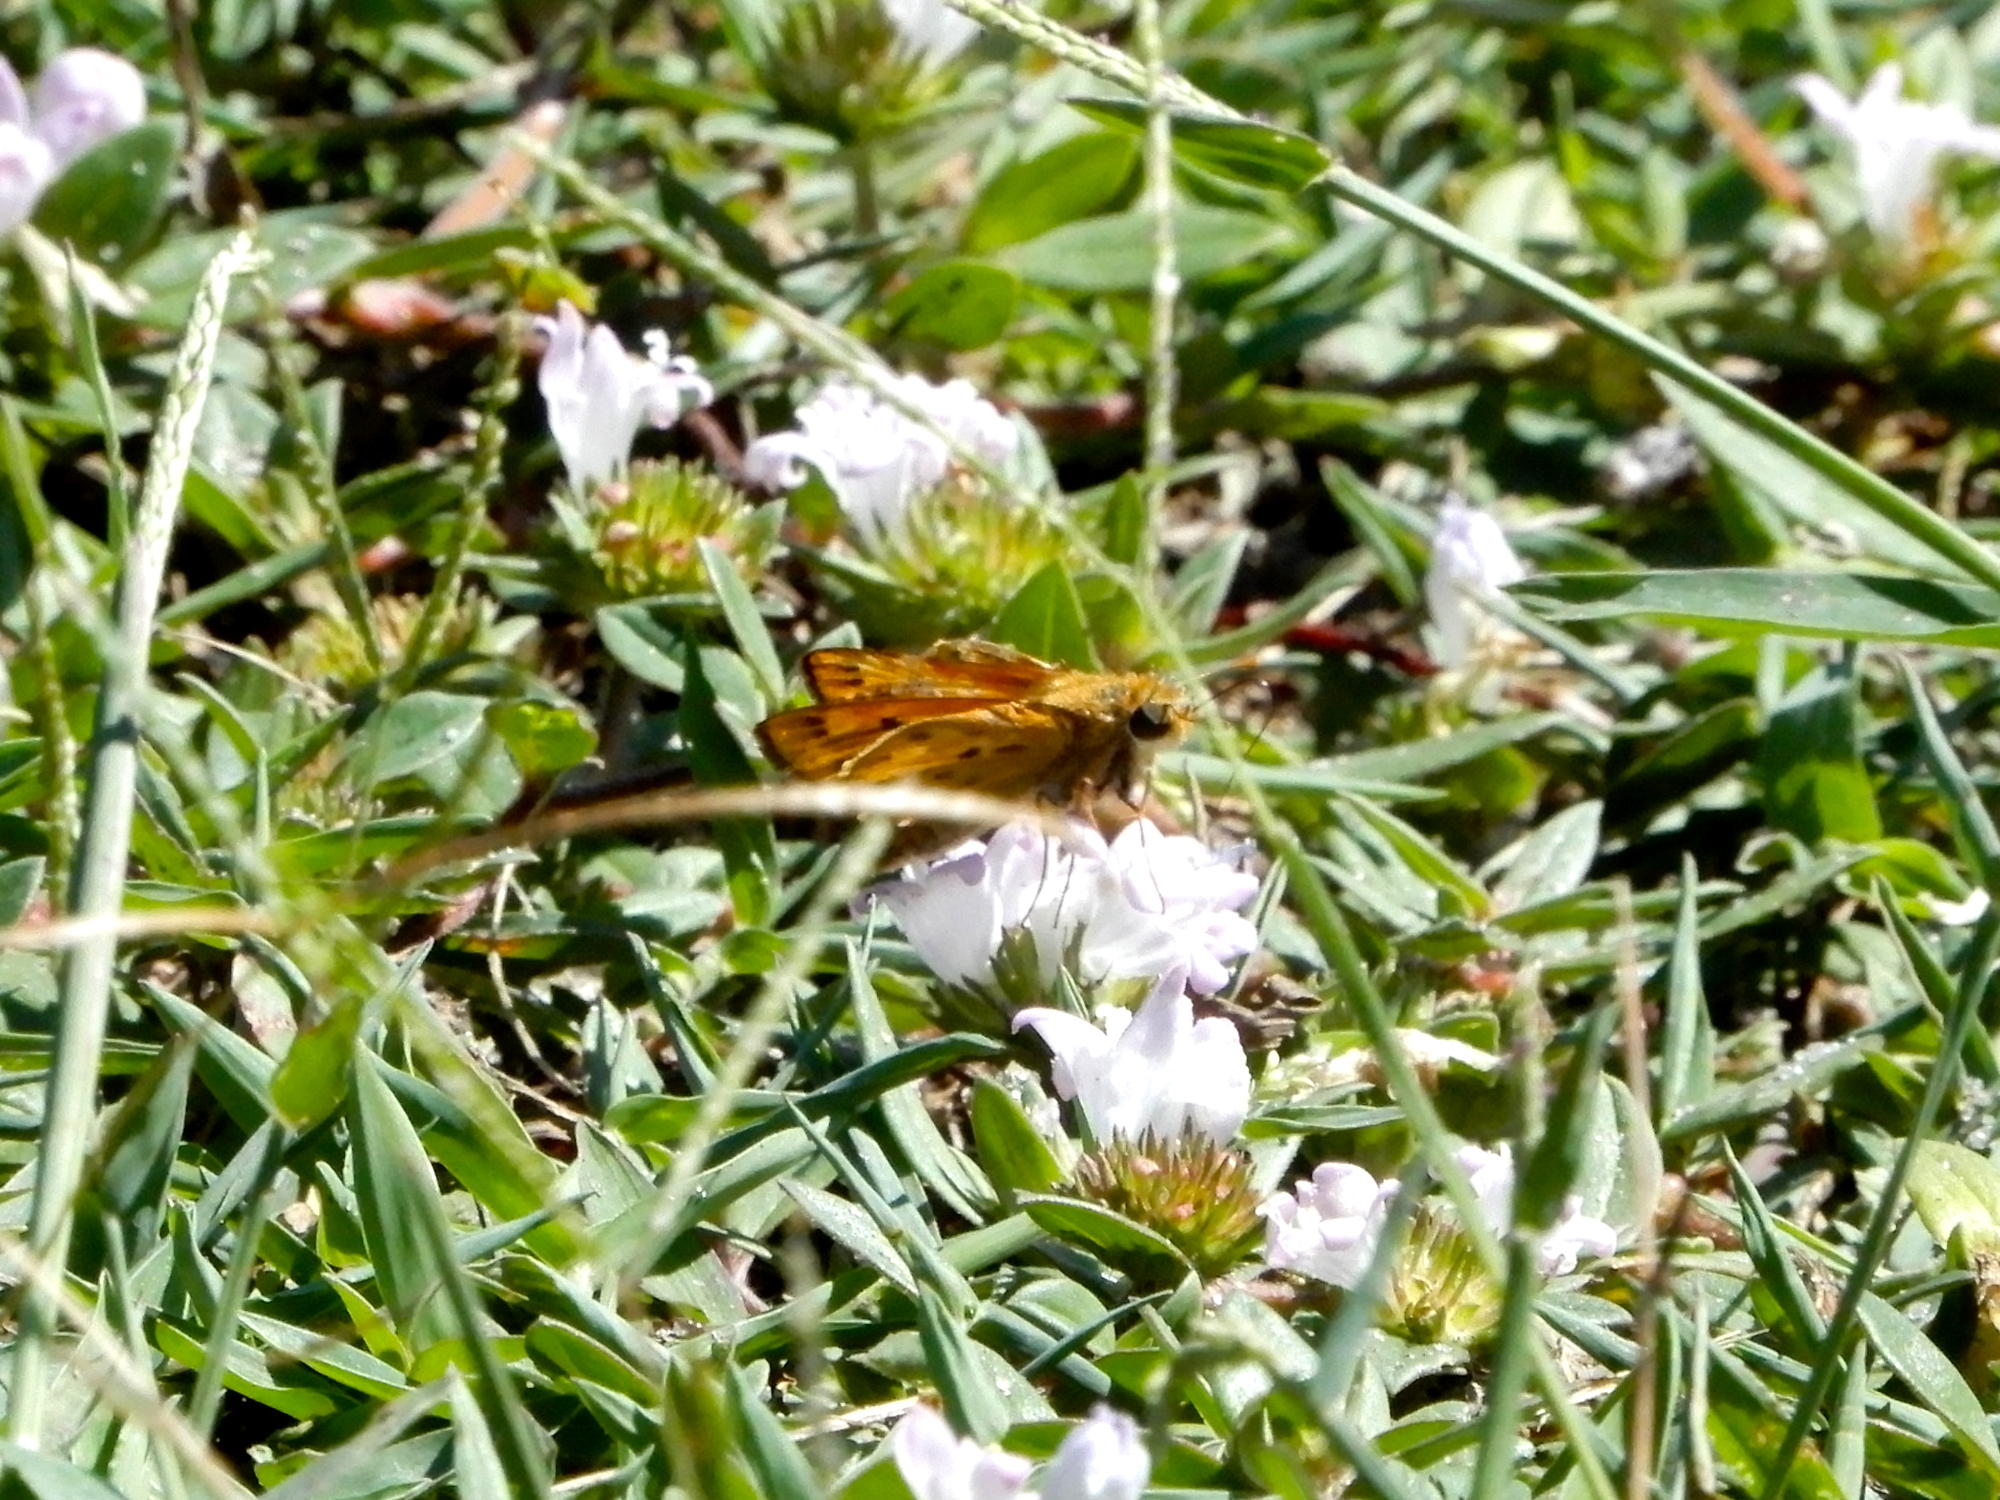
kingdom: Animalia
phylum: Arthropoda
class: Insecta
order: Lepidoptera
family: Hesperiidae
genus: Hylephila
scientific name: Hylephila phyleus
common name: Fiery skipper
